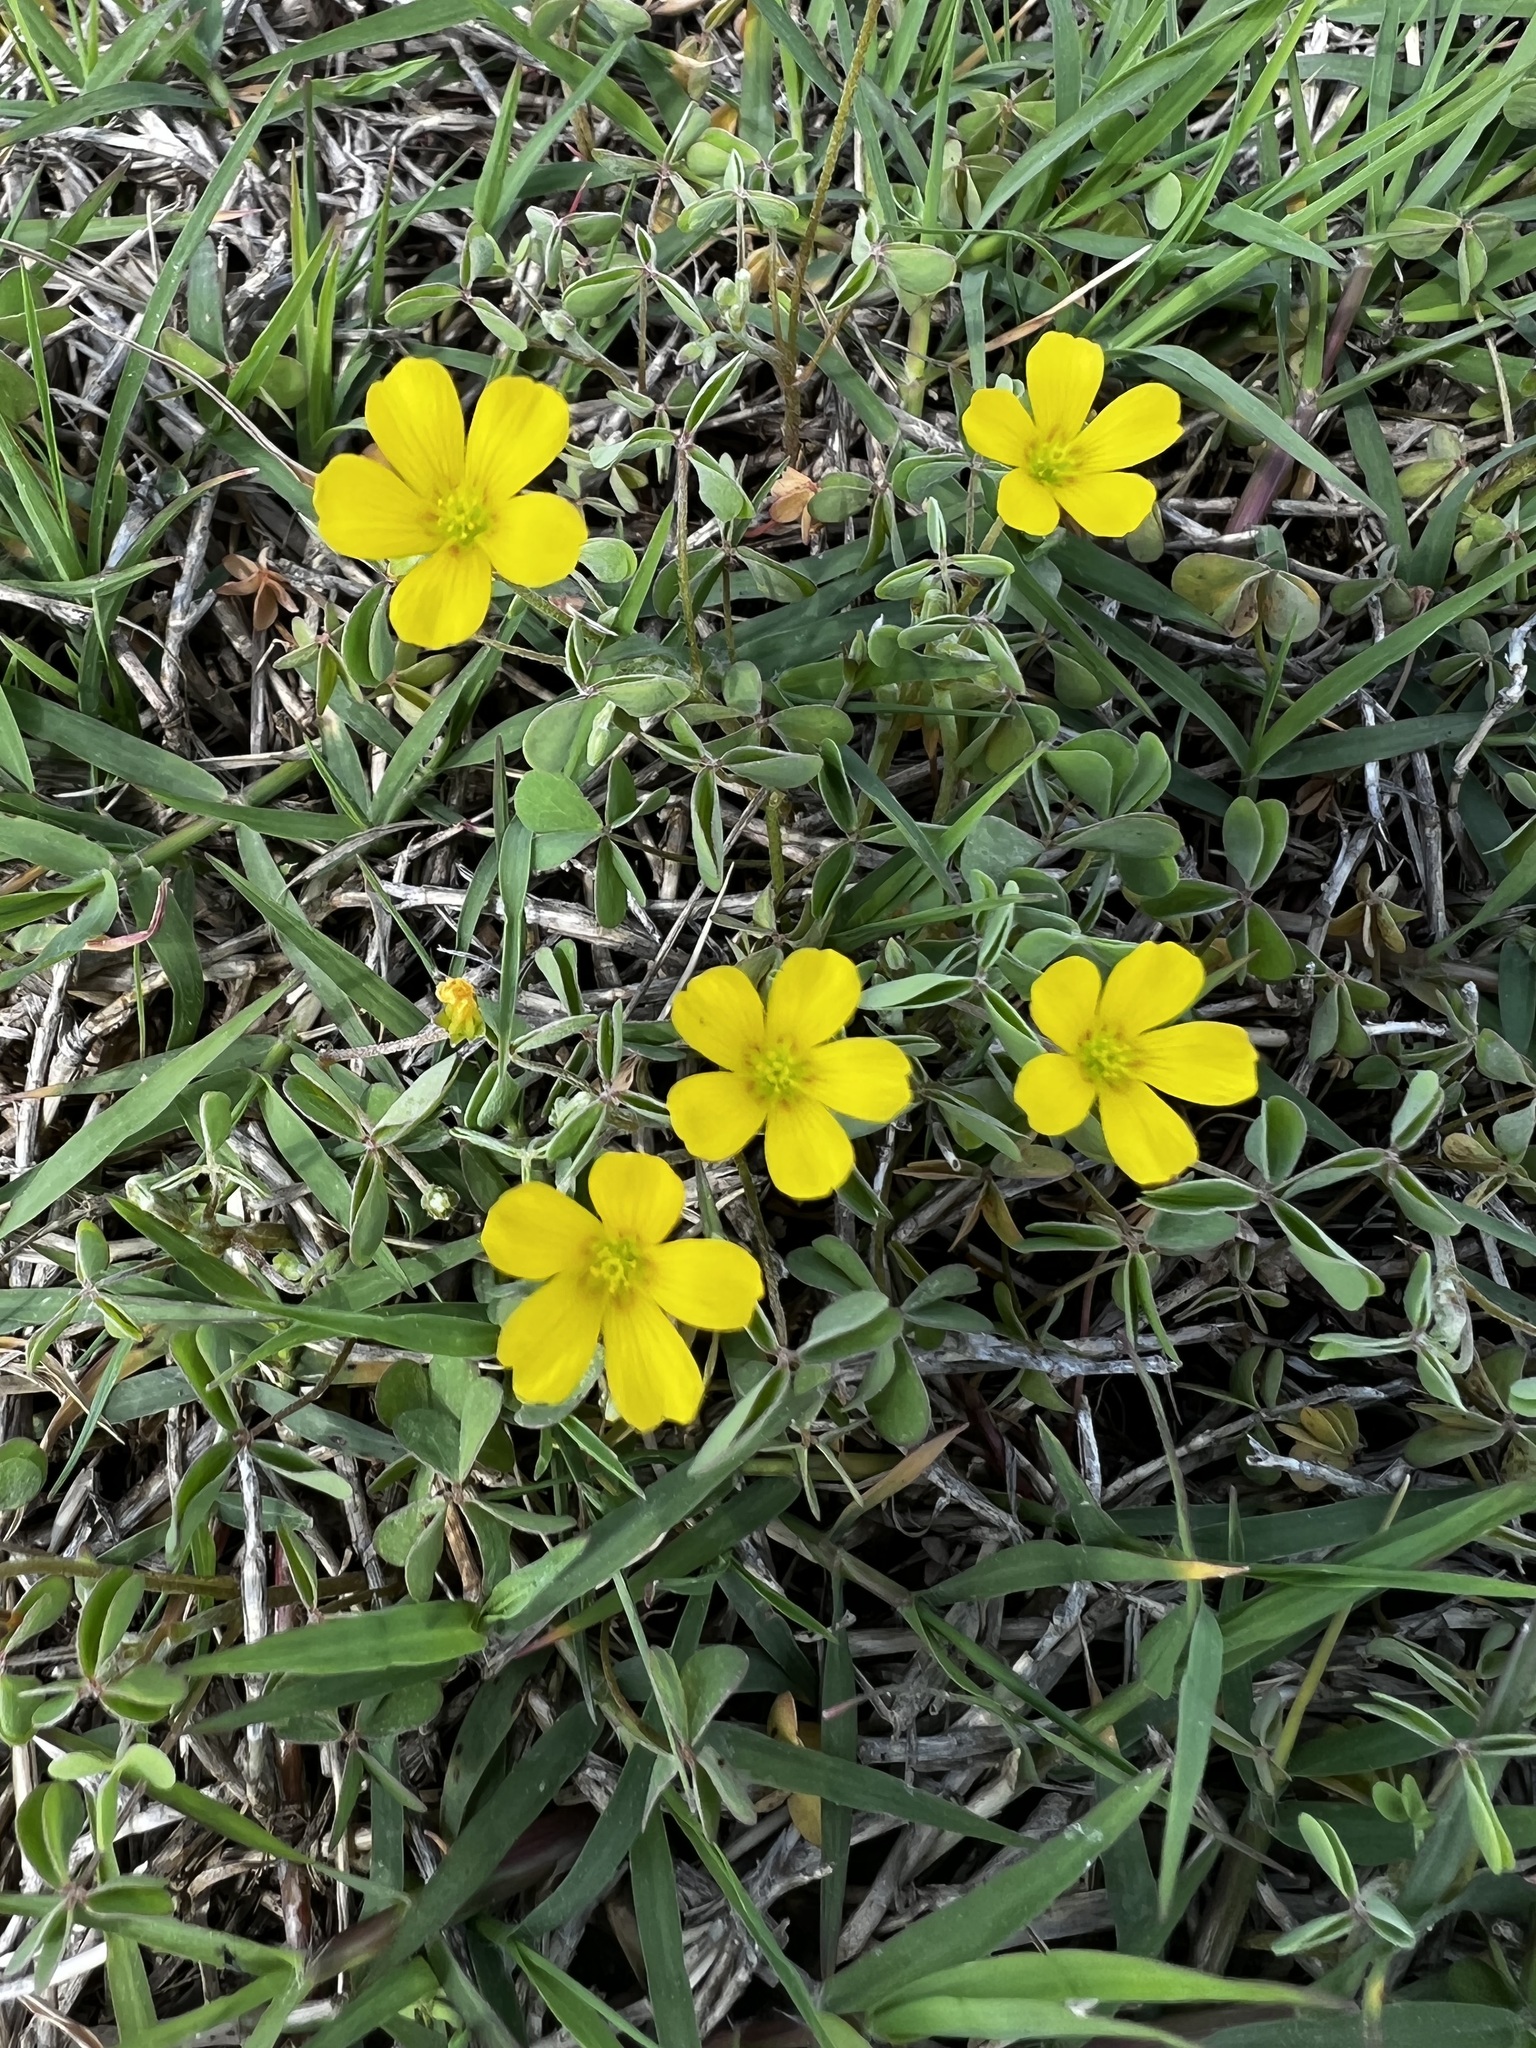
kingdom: Plantae
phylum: Tracheophyta
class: Magnoliopsida
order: Oxalidales
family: Oxalidaceae
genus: Oxalis
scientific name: Oxalis texana
